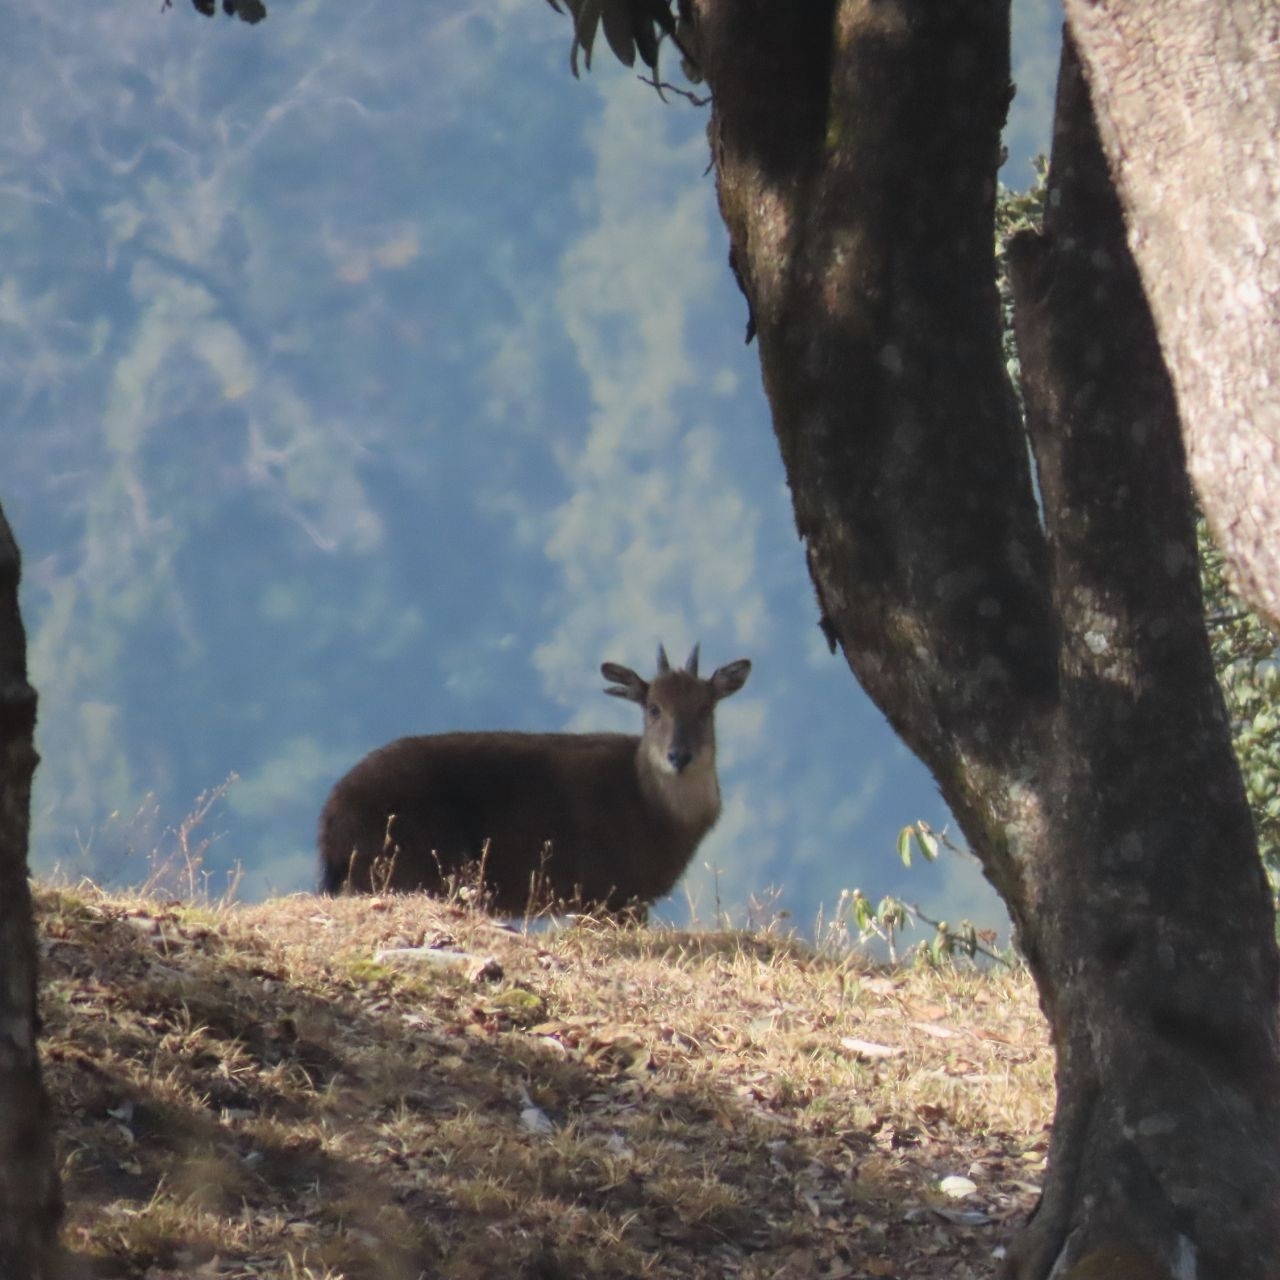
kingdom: Animalia
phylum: Chordata
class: Mammalia
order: Artiodactyla
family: Bovidae
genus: Naemorhedus
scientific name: Naemorhedus goral
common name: Goral
